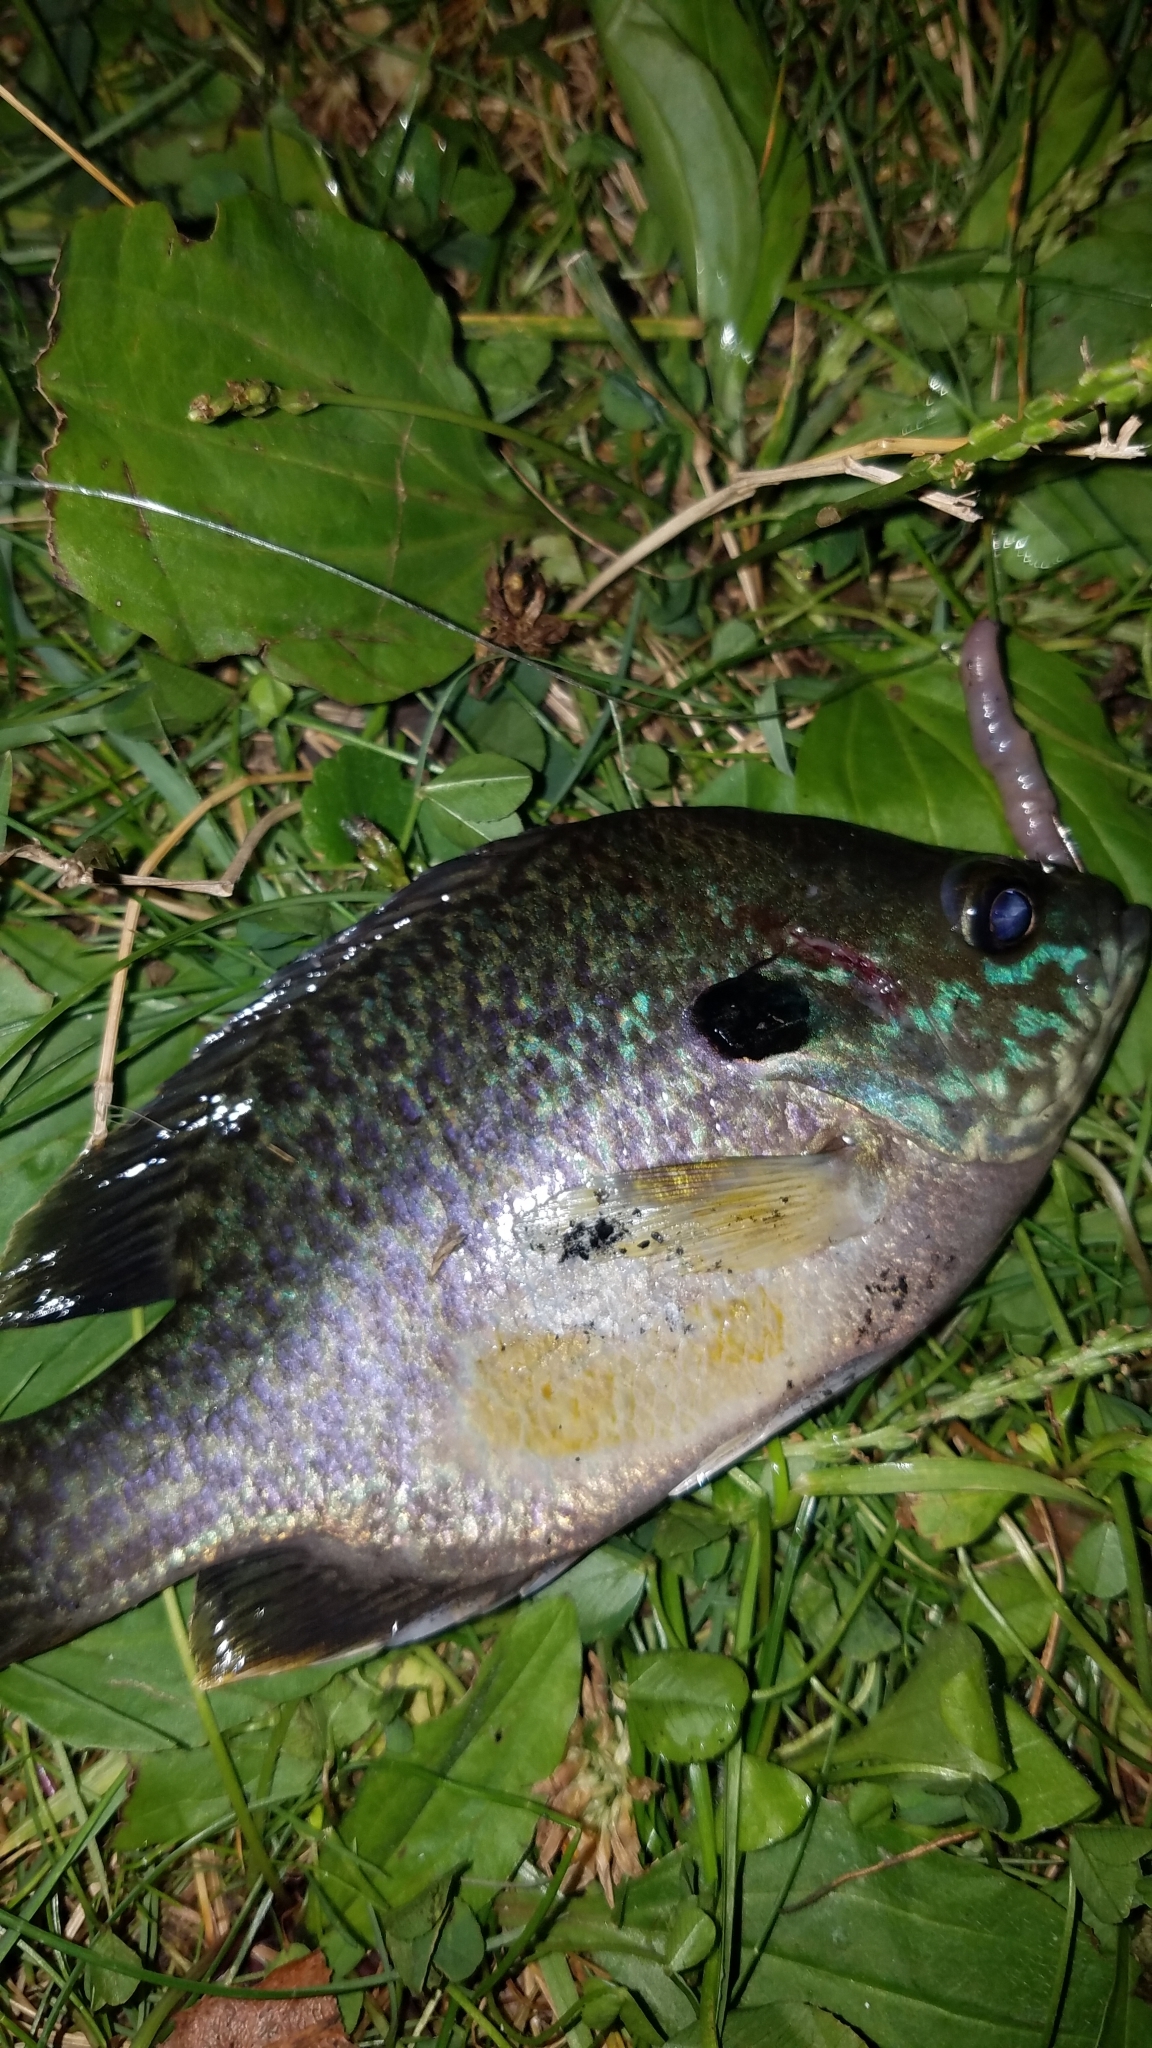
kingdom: Animalia
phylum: Chordata
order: Perciformes
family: Centrarchidae
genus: Lepomis
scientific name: Lepomis
